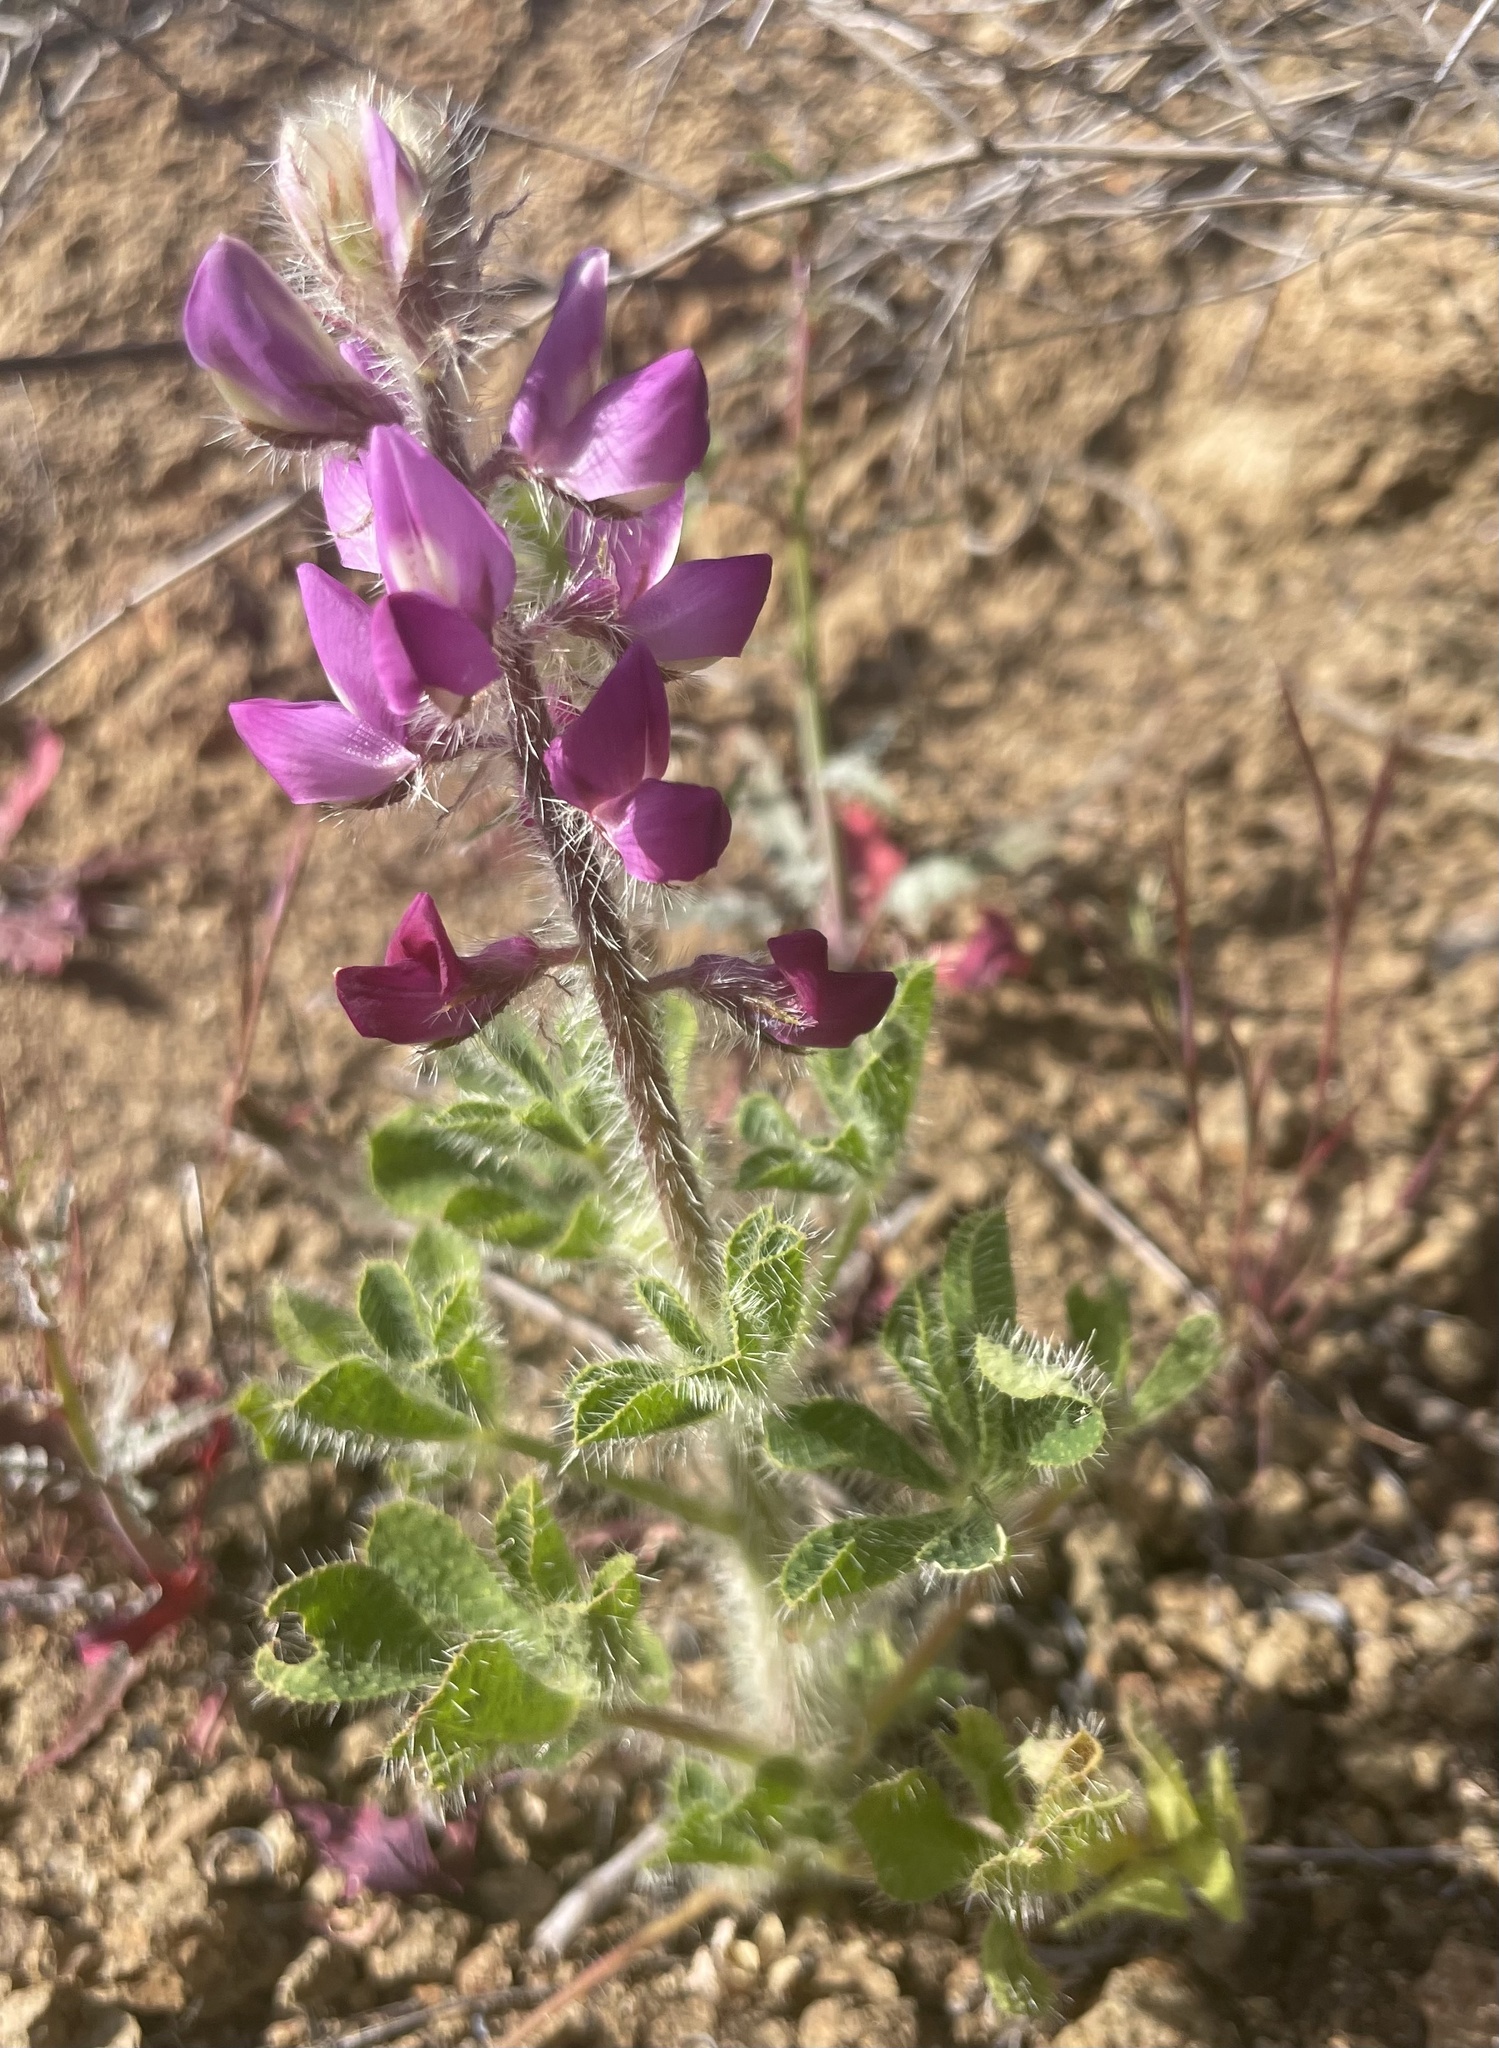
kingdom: Plantae
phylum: Tracheophyta
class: Magnoliopsida
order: Fabales
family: Fabaceae
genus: Lupinus
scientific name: Lupinus hirsutissimus
